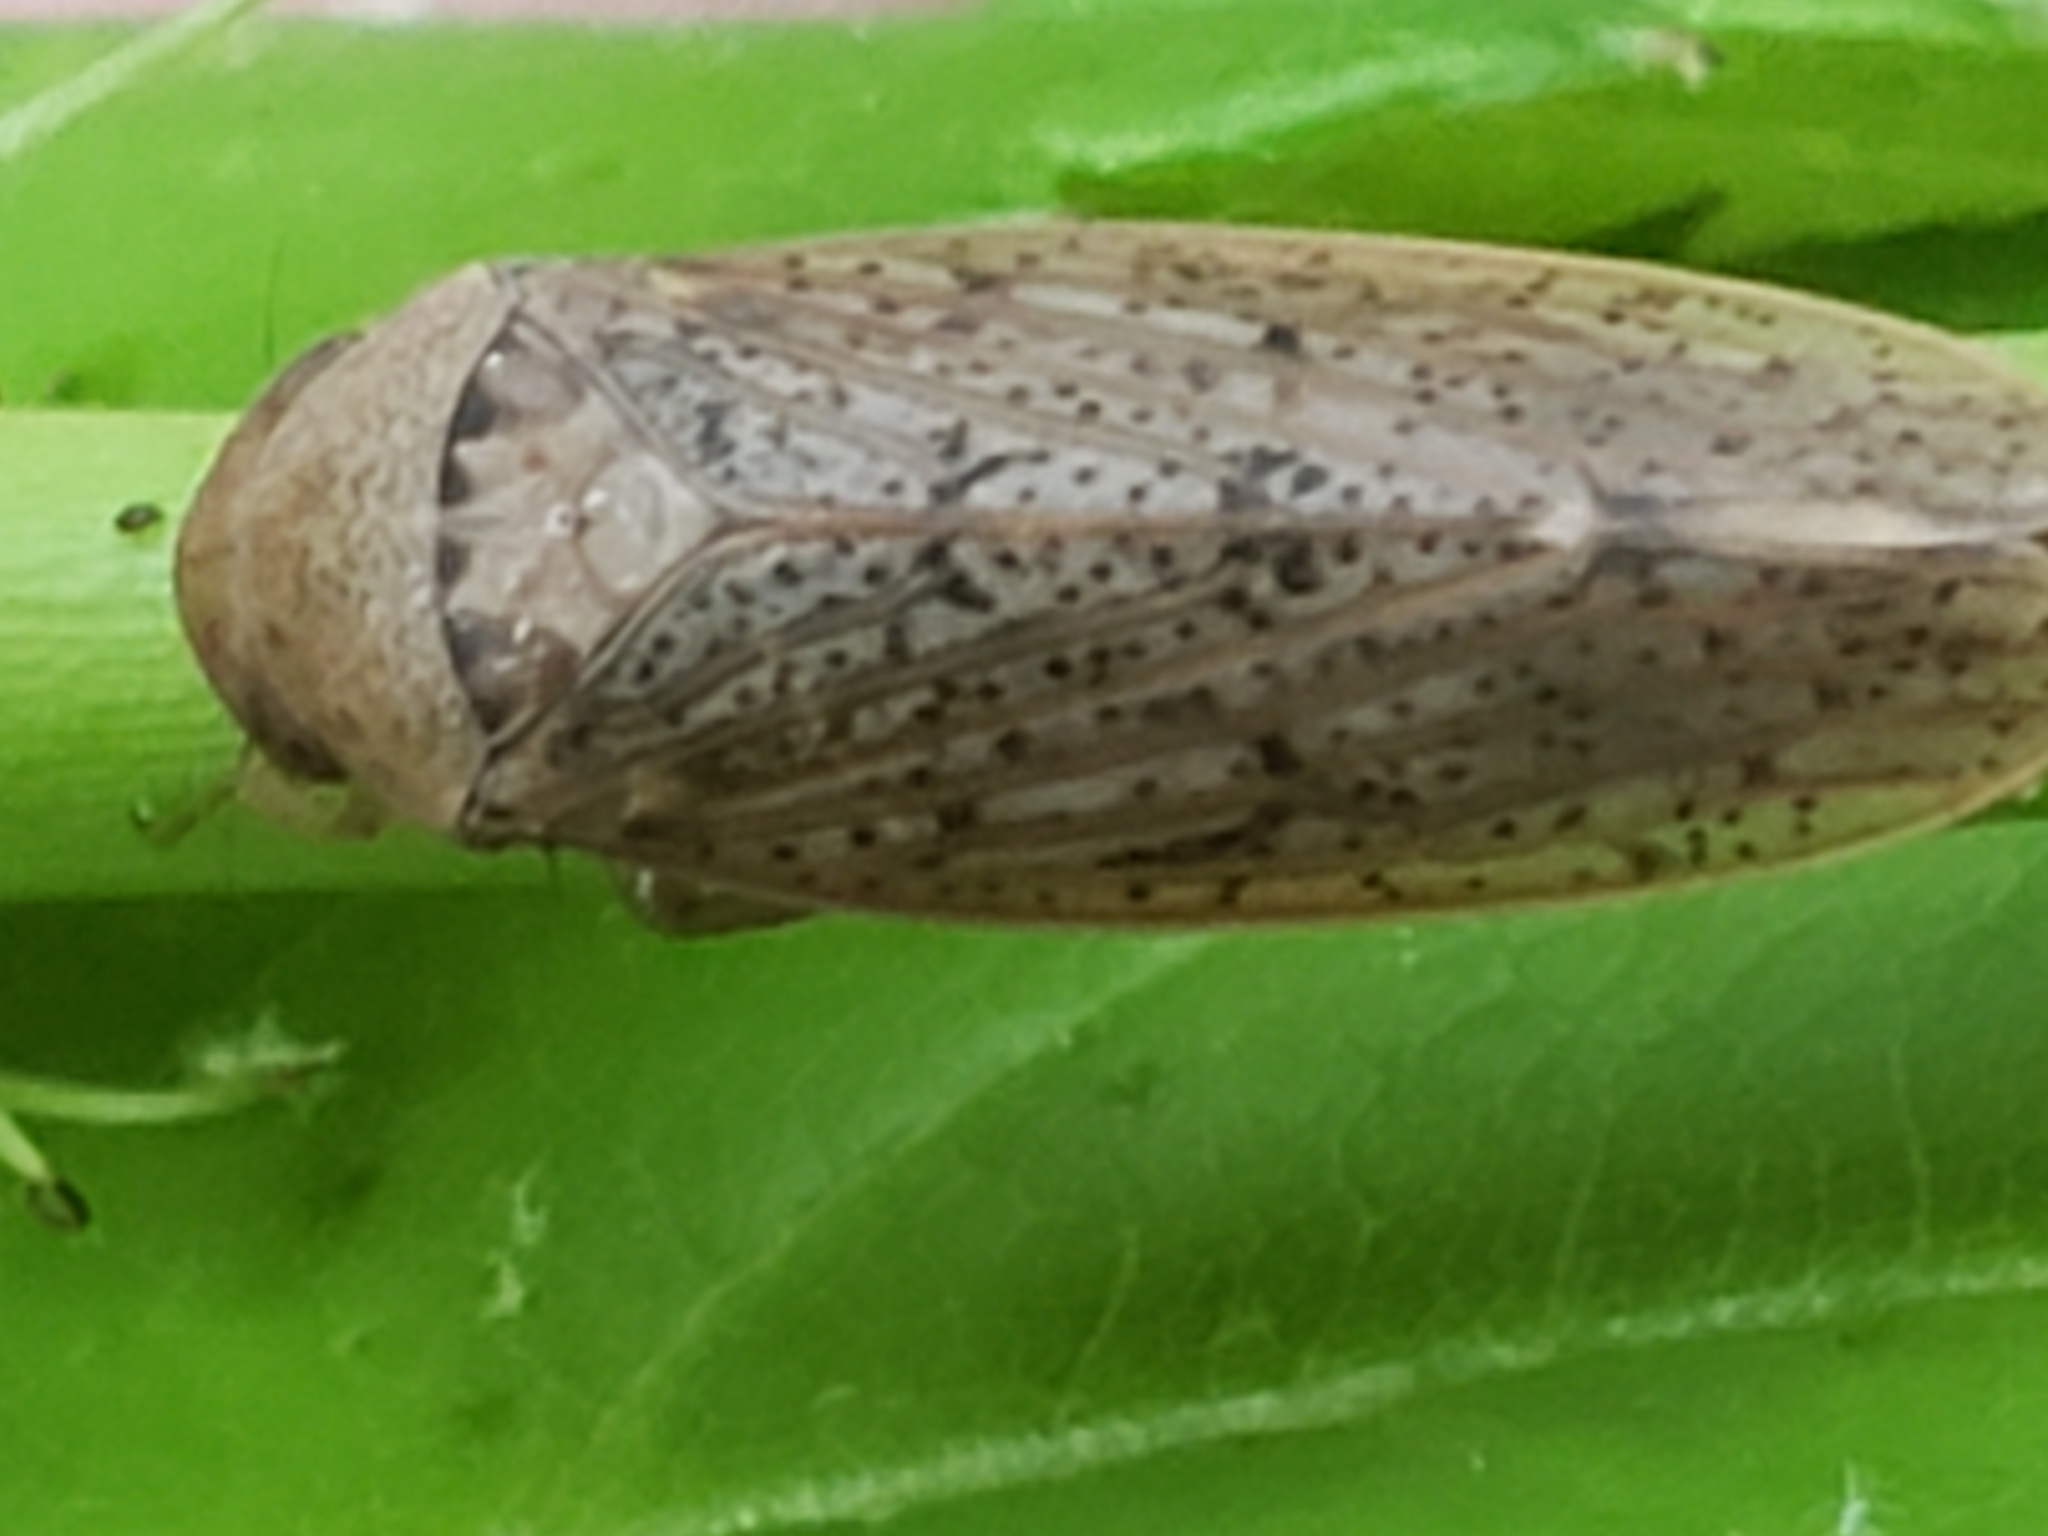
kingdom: Animalia
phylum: Arthropoda
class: Insecta
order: Hemiptera
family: Cicadellidae
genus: Ponana
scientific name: Ponana puncticollis
